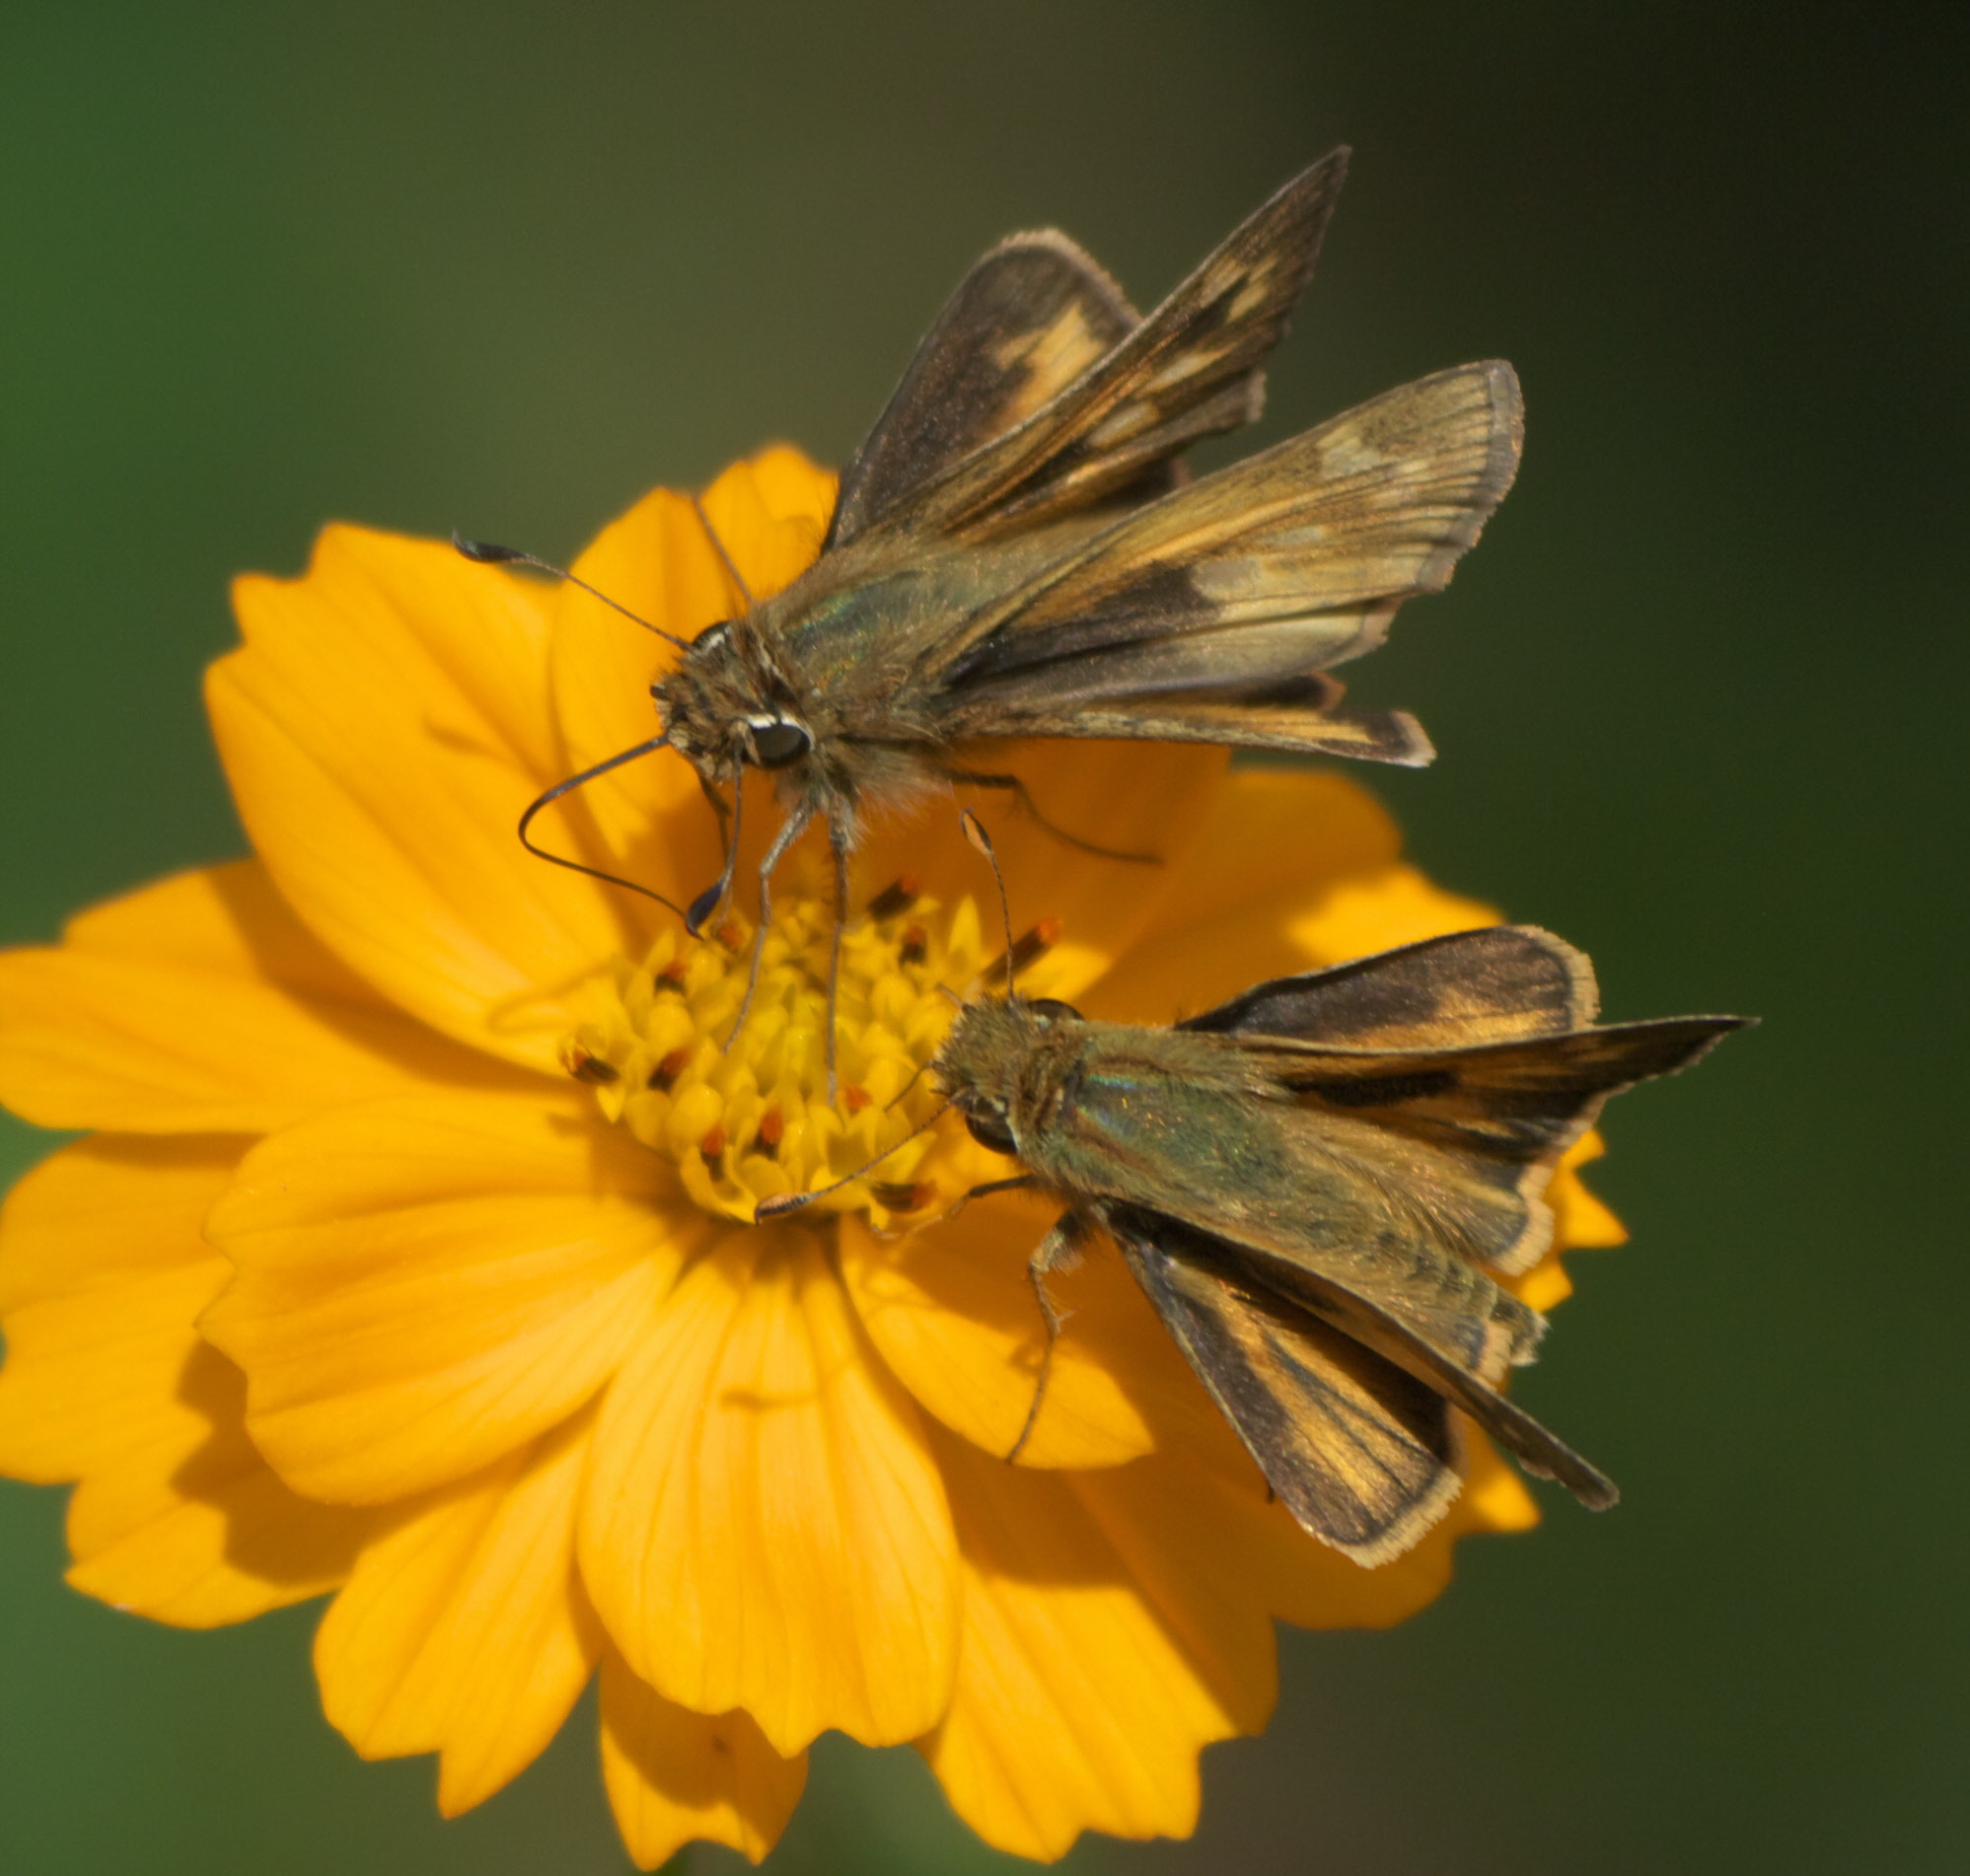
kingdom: Animalia
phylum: Arthropoda
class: Insecta
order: Lepidoptera
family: Hesperiidae
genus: Atalopedes
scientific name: Atalopedes
